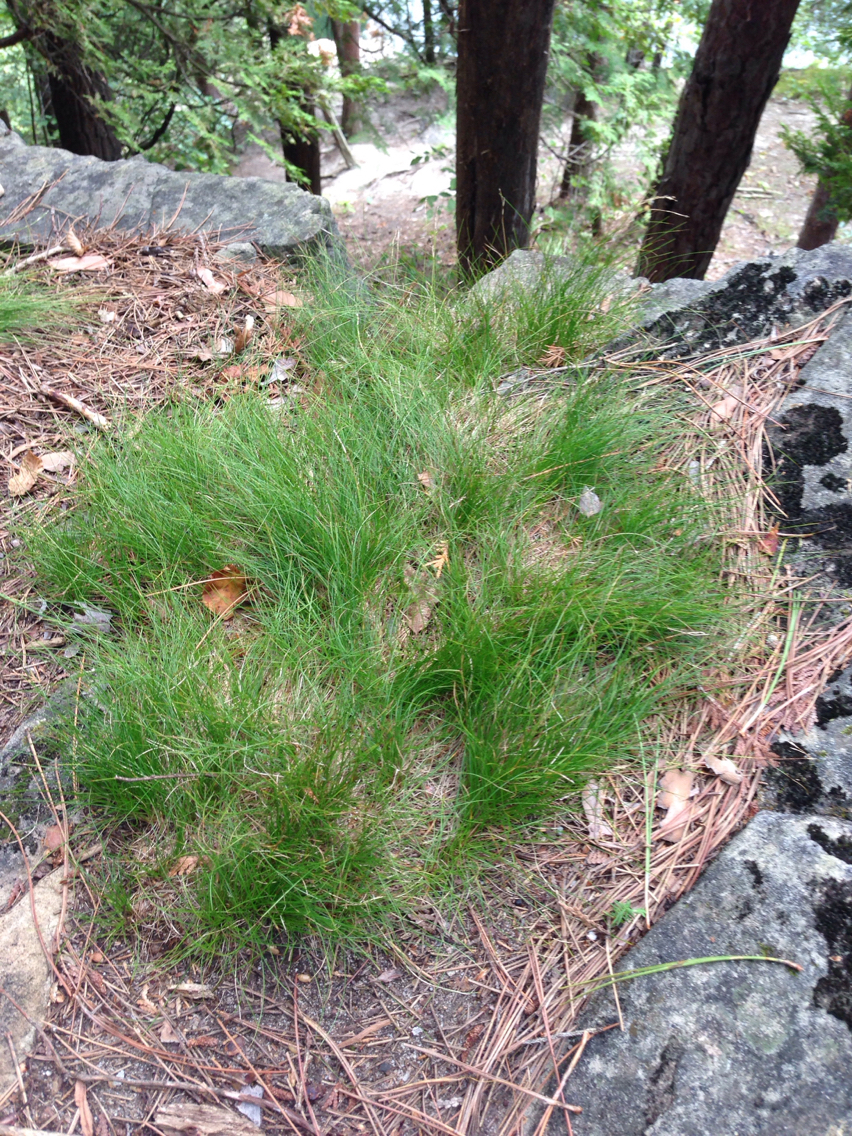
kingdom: Plantae
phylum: Tracheophyta
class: Liliopsida
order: Poales
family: Cyperaceae
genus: Carex
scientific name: Carex eburnea
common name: Bristle-leaved sedge
